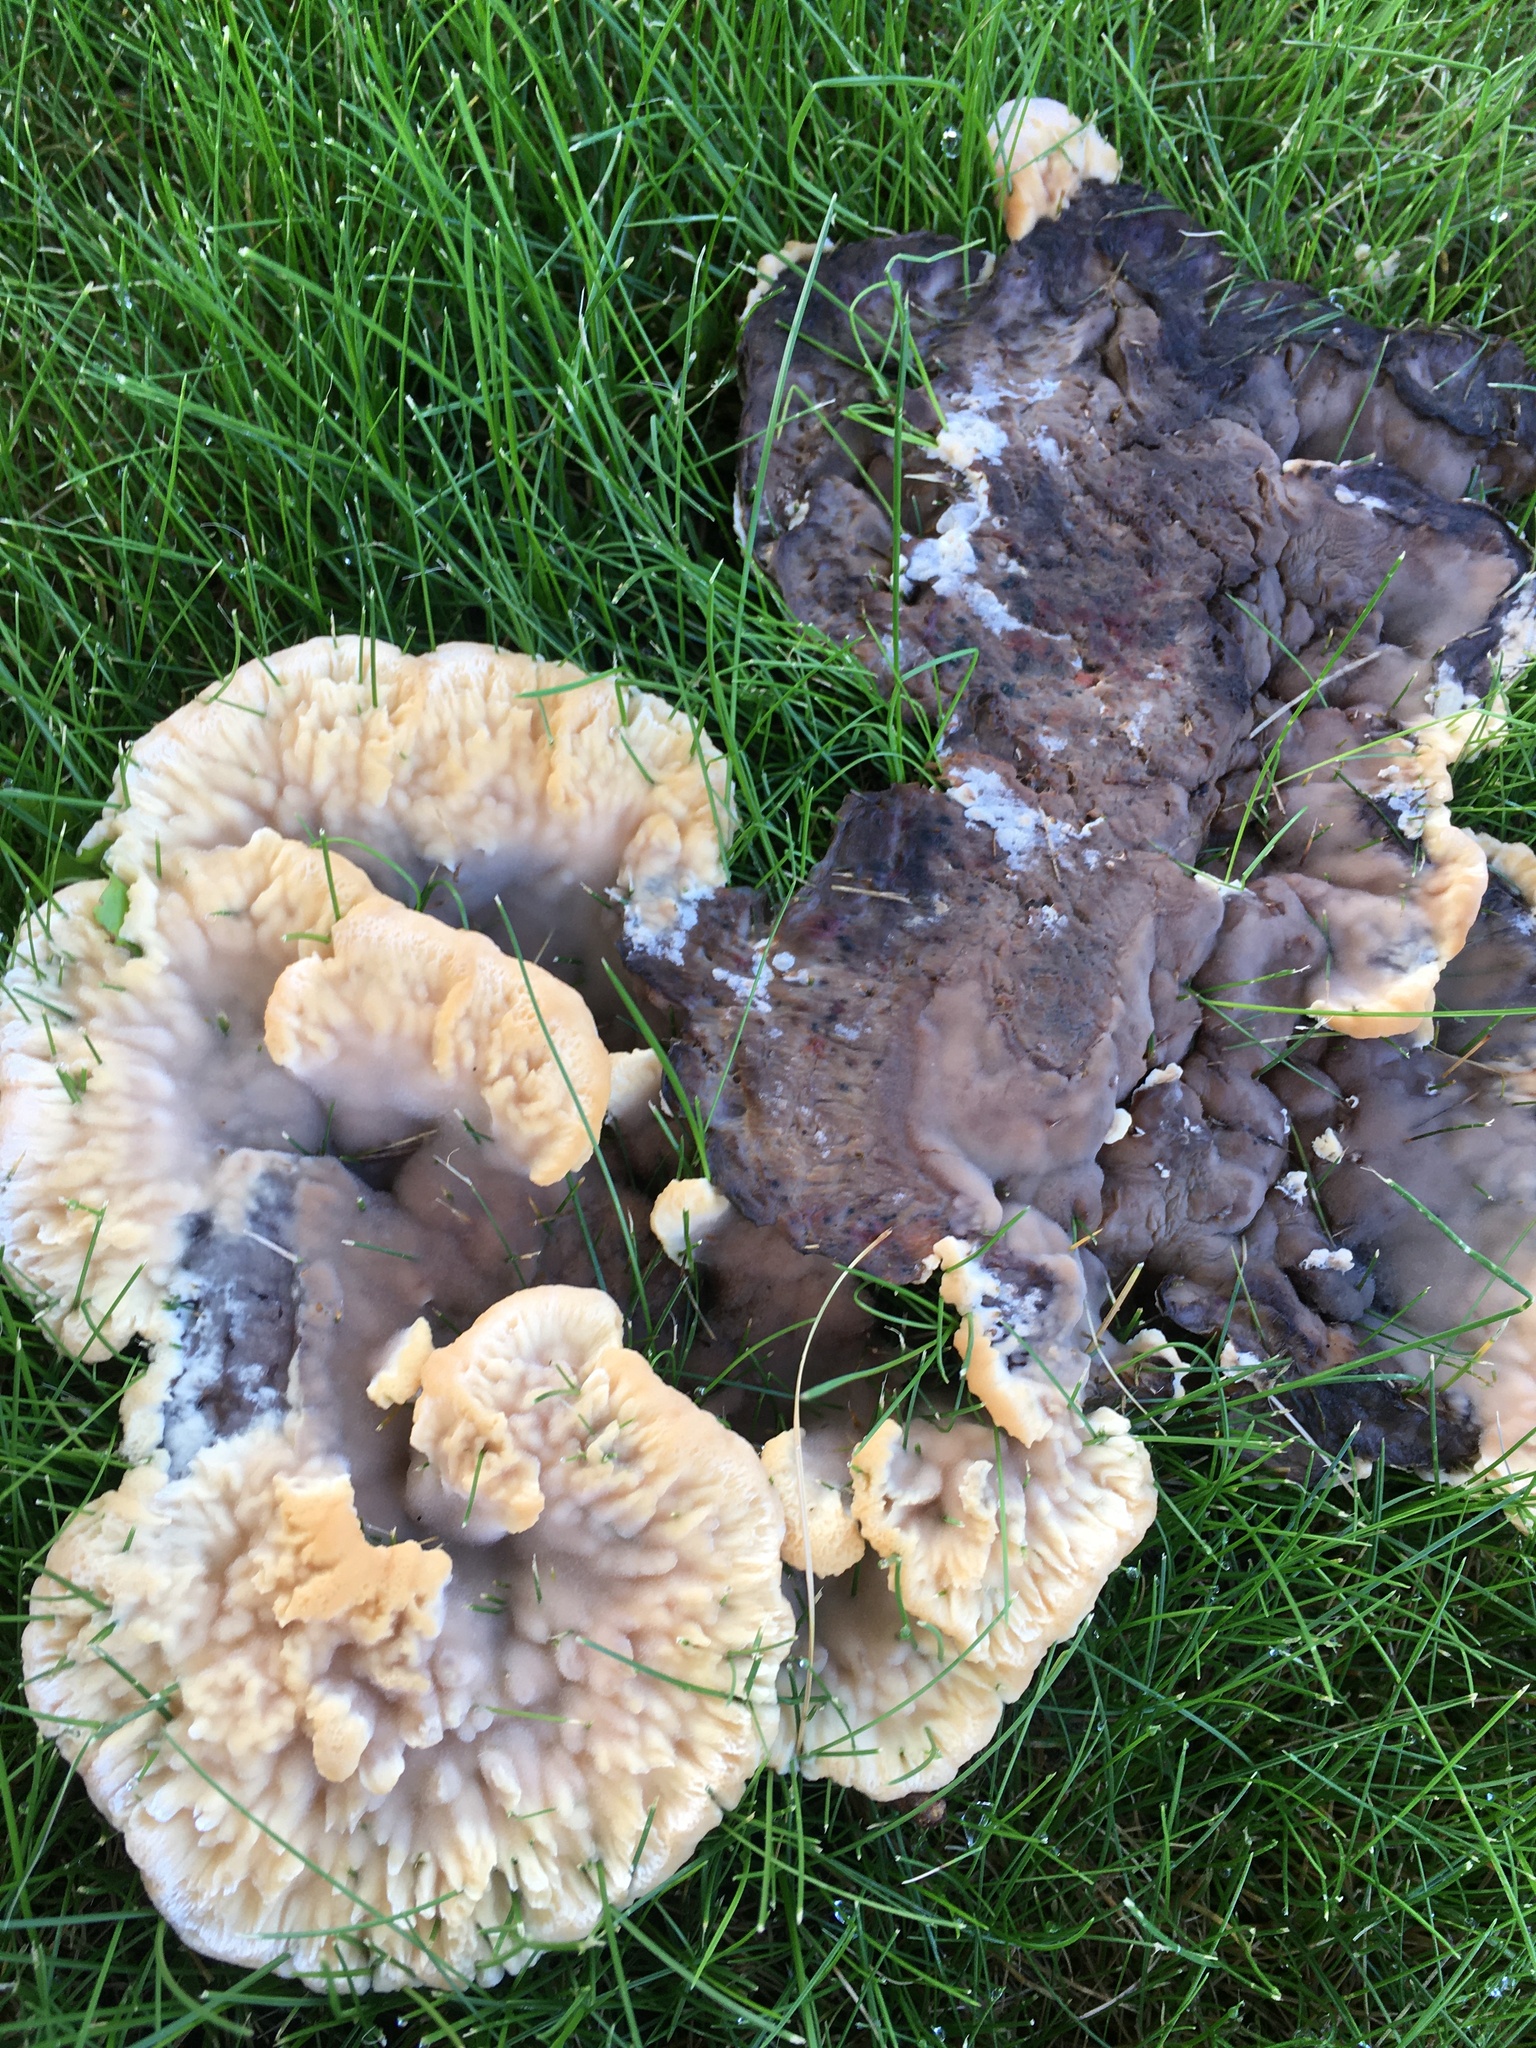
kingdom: Fungi
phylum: Basidiomycota
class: Agaricomycetes
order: Polyporales
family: Podoscyphaceae
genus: Abortiporus
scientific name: Abortiporus biennis
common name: Blushing rosette
